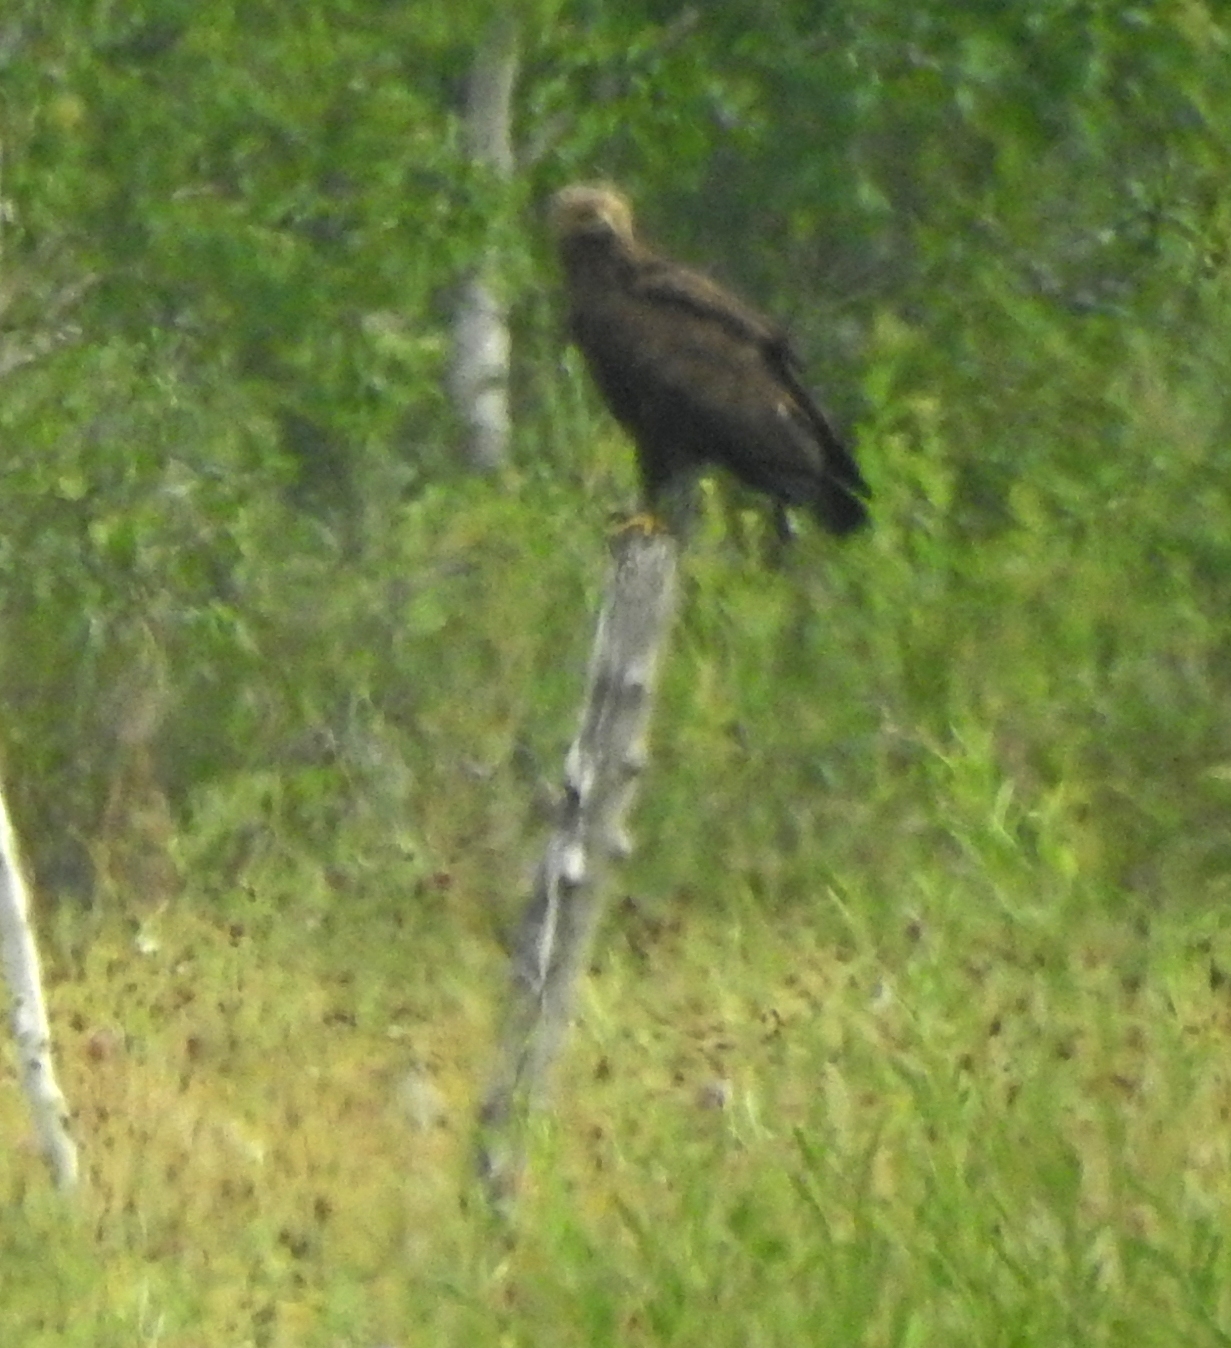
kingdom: Animalia
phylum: Chordata
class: Aves
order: Accipitriformes
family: Accipitridae
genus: Aquila
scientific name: Aquila clanga
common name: Greater spotted eagle
